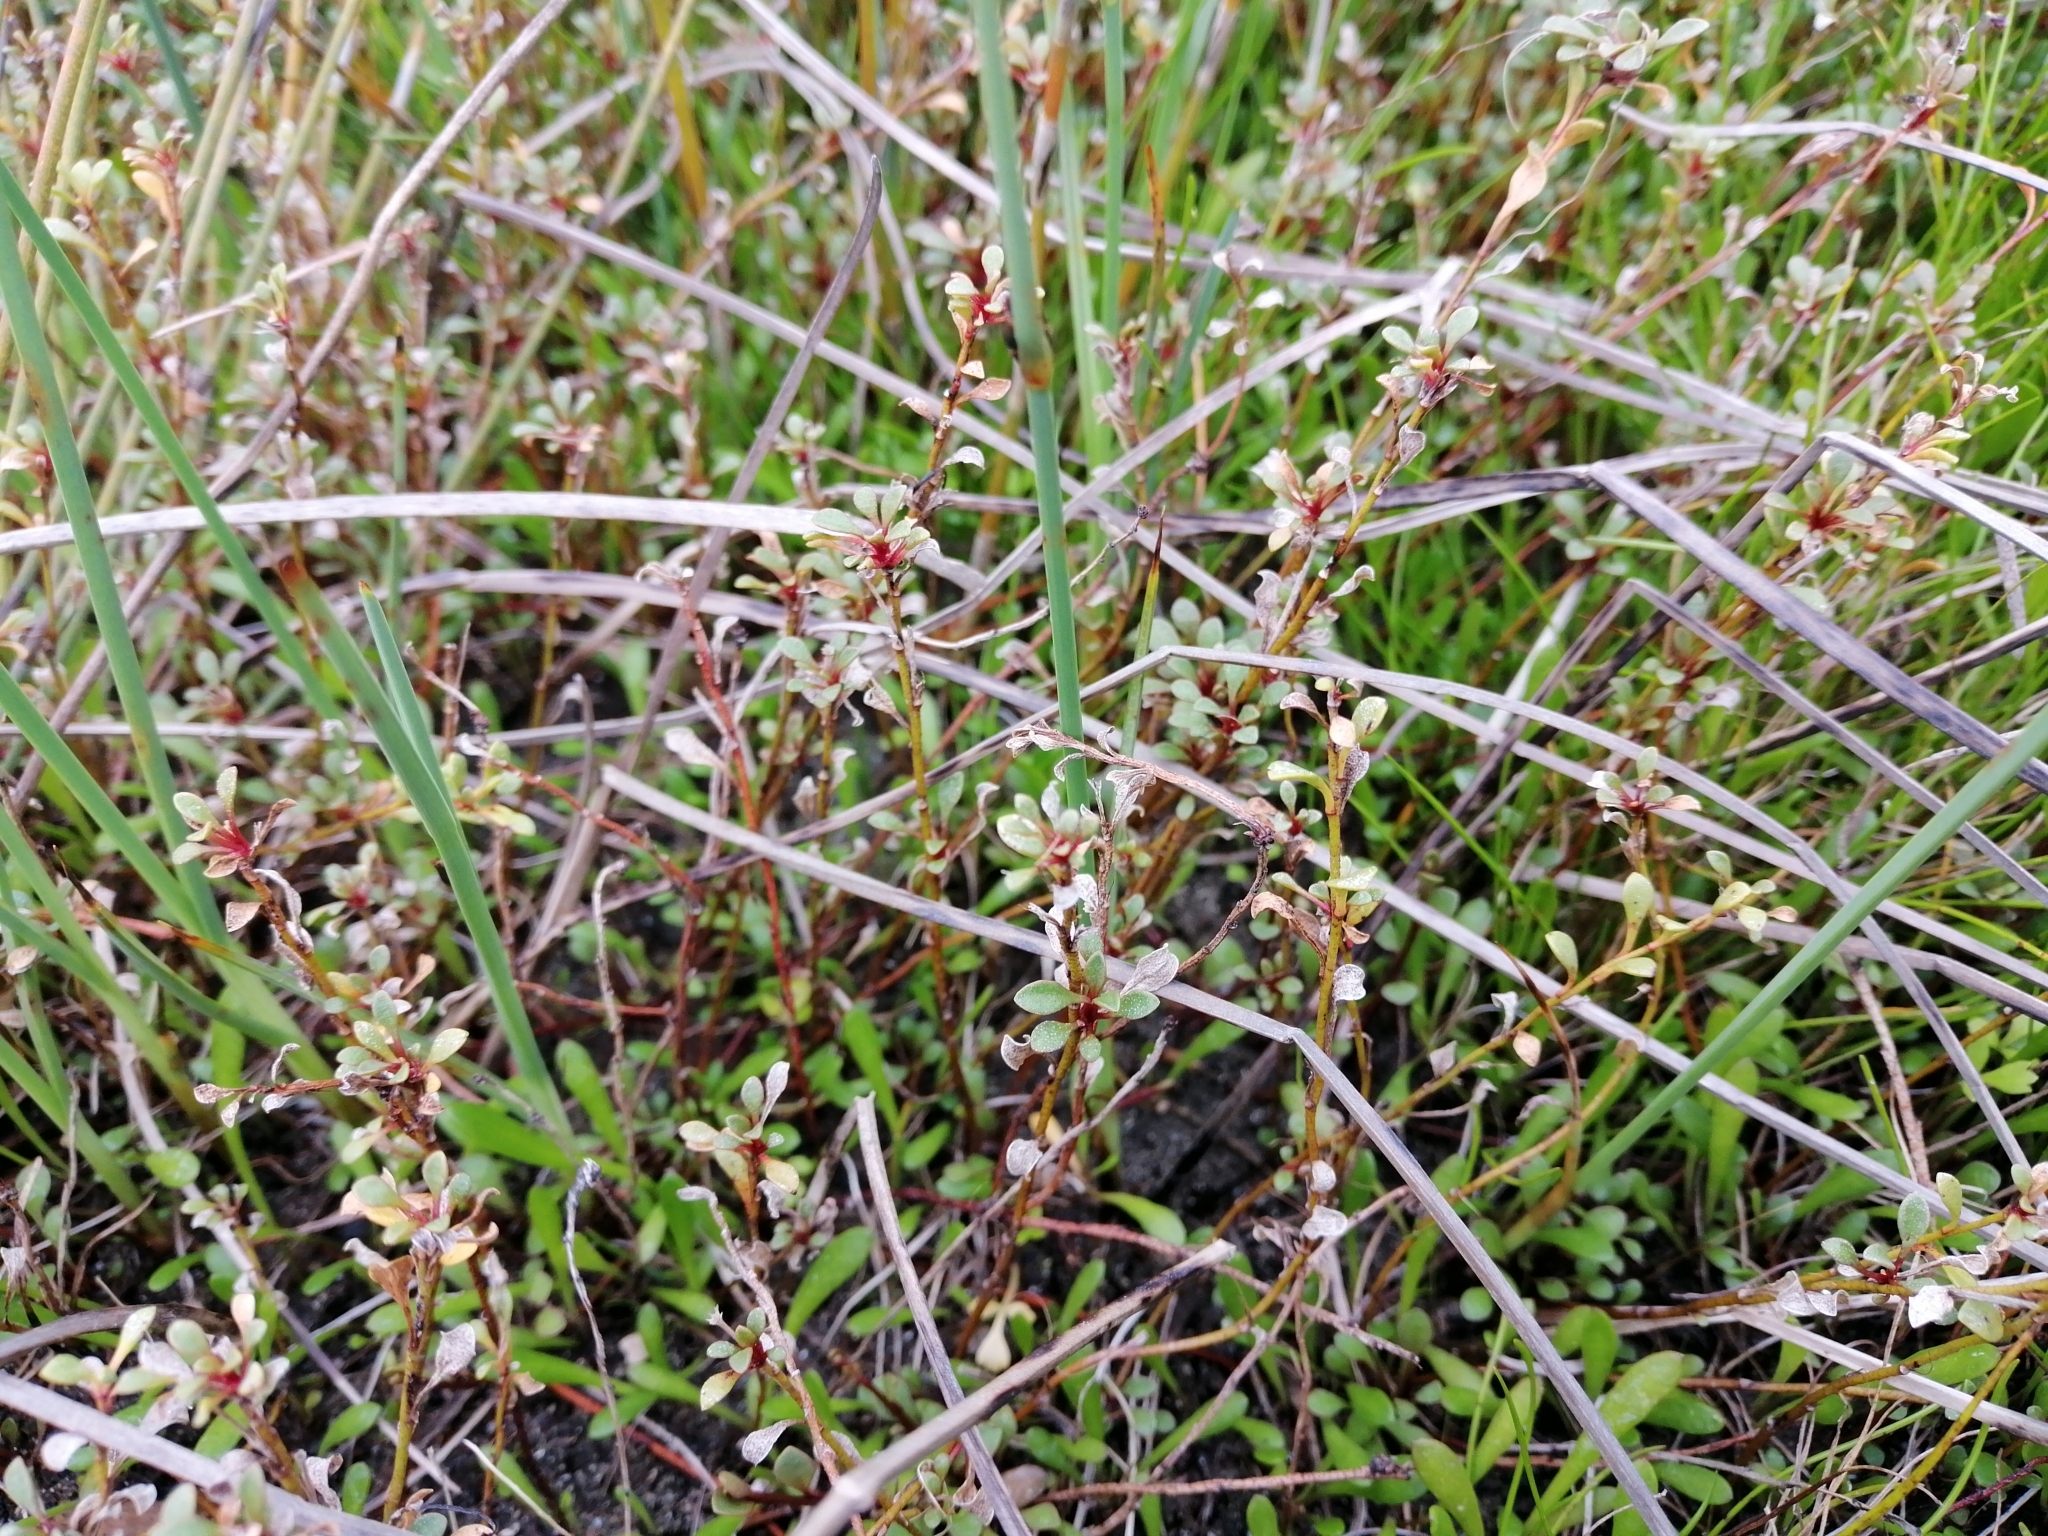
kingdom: Plantae
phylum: Tracheophyta
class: Magnoliopsida
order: Ericales
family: Primulaceae
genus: Samolus
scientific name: Samolus repens
